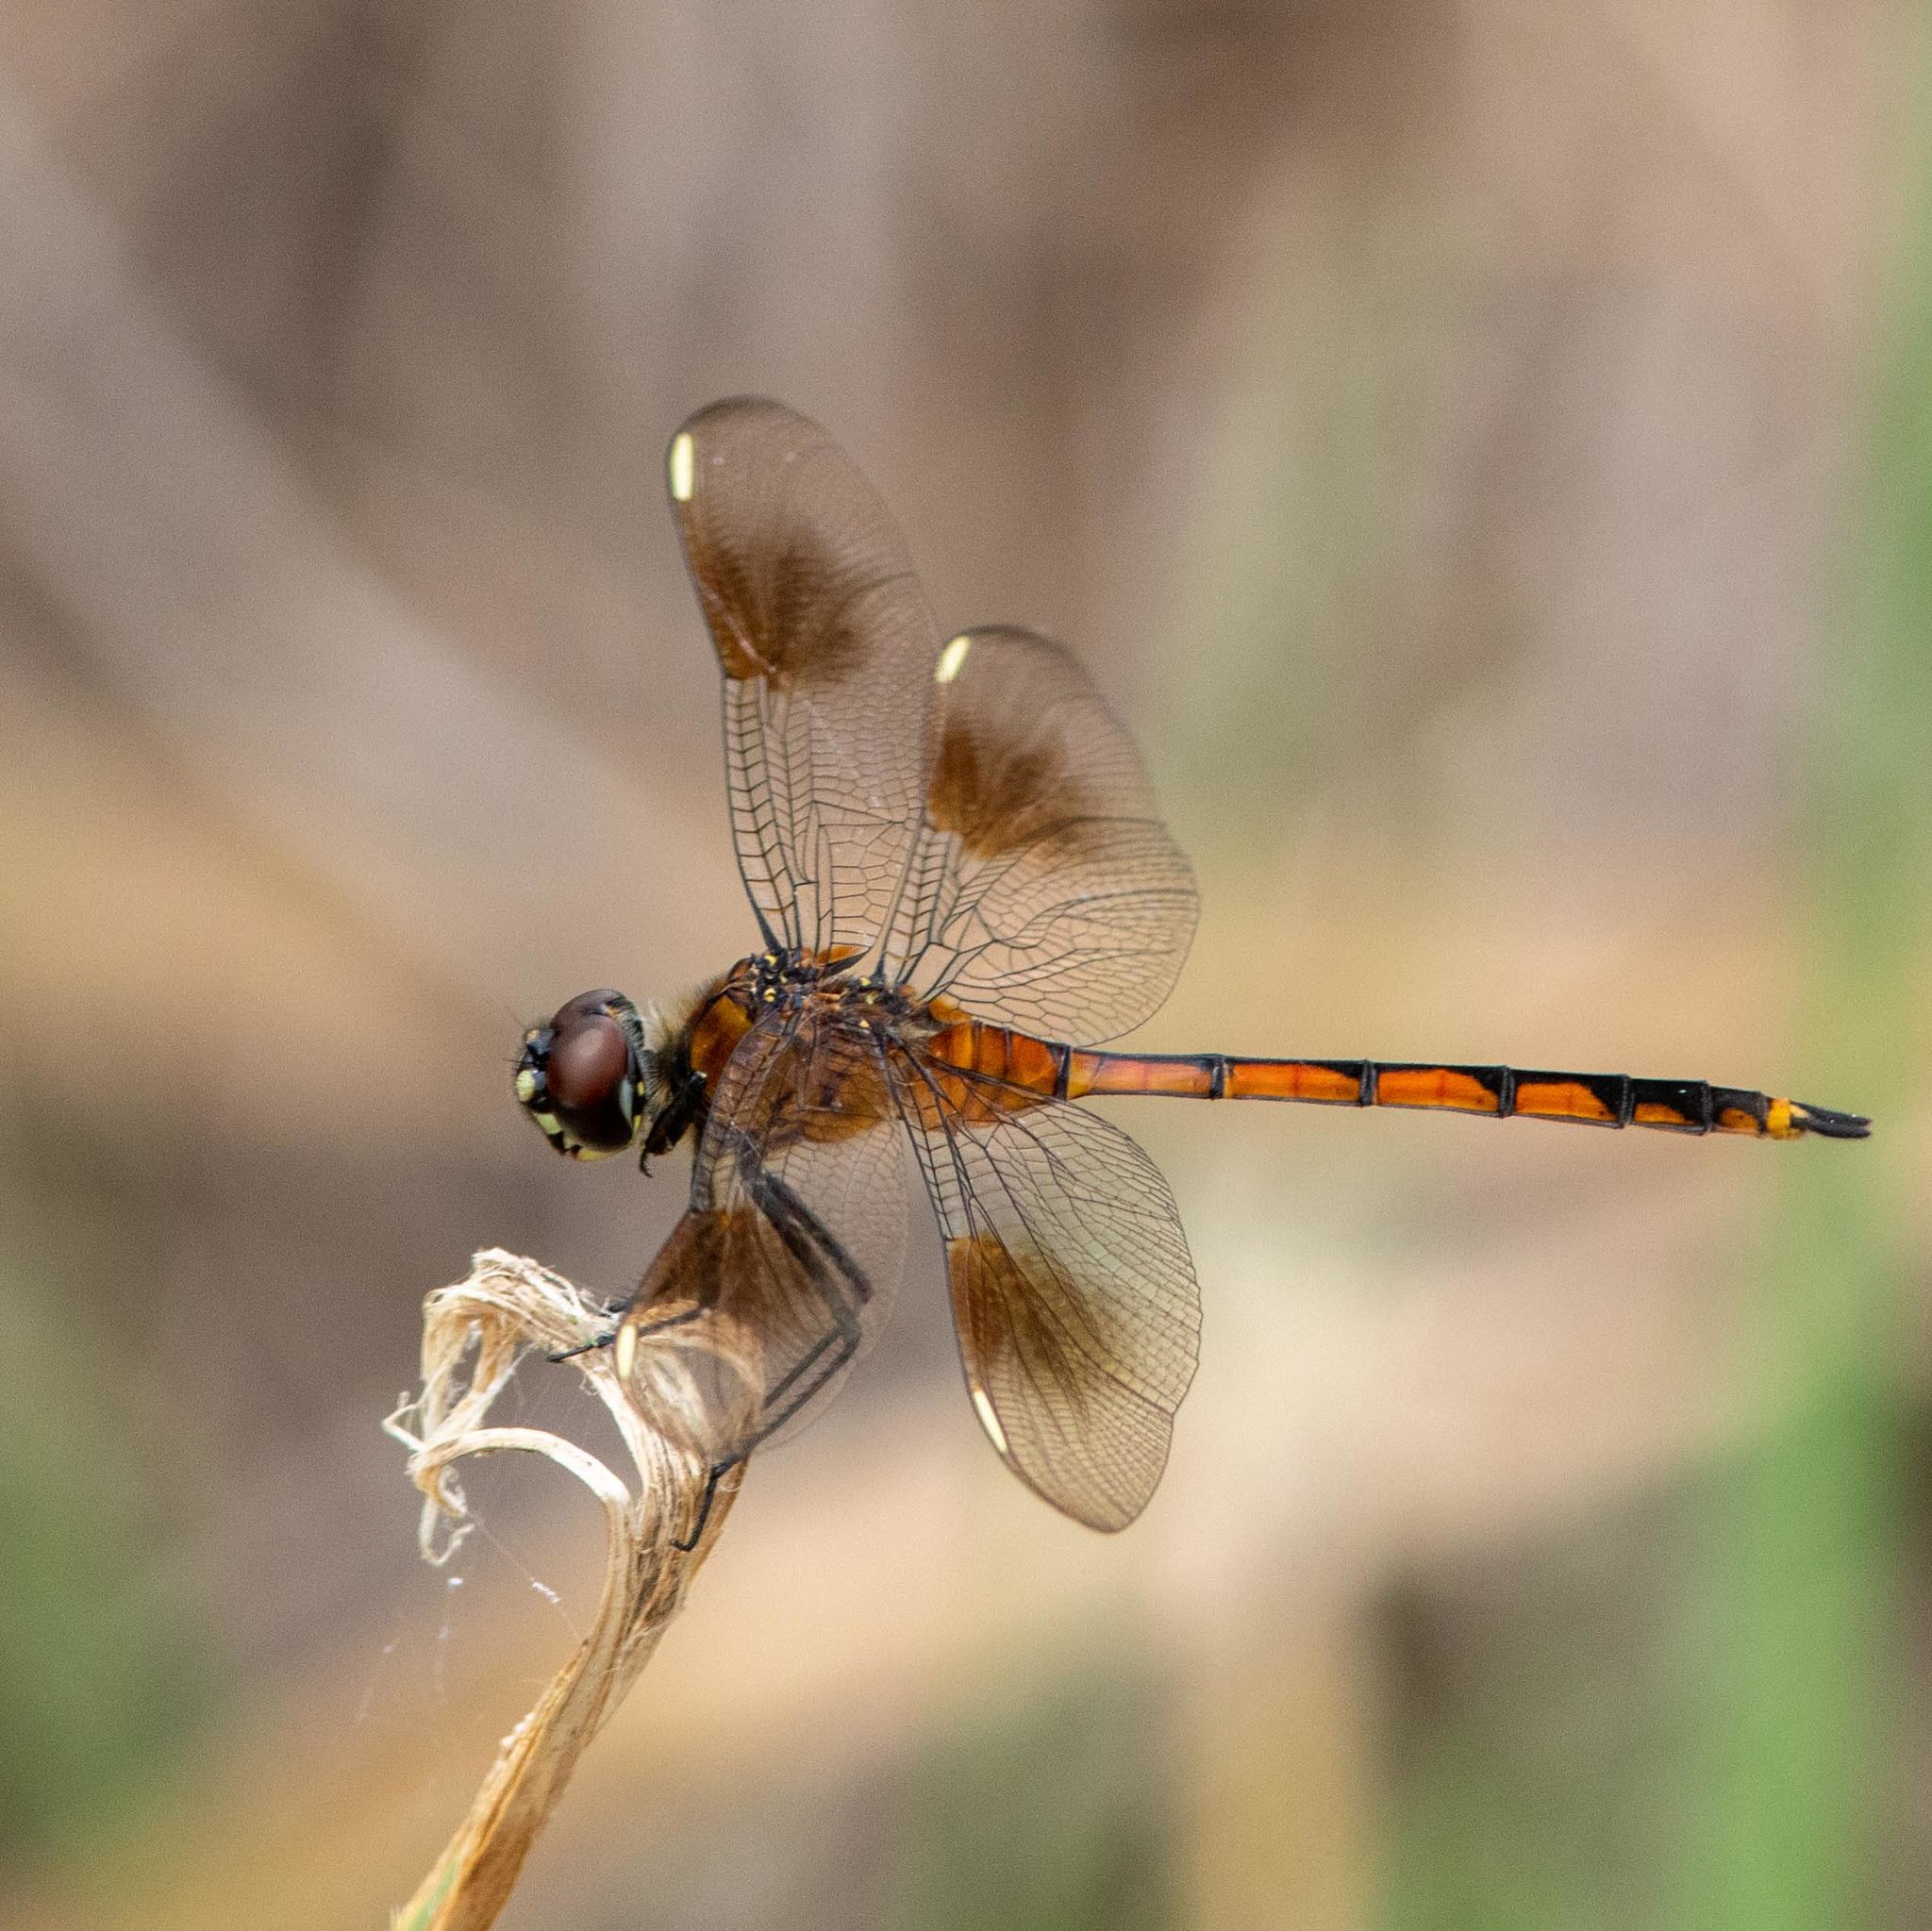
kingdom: Animalia
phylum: Arthropoda
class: Insecta
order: Odonata
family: Libellulidae
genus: Brachymesia
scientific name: Brachymesia gravida
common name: Four-spotted pennant
